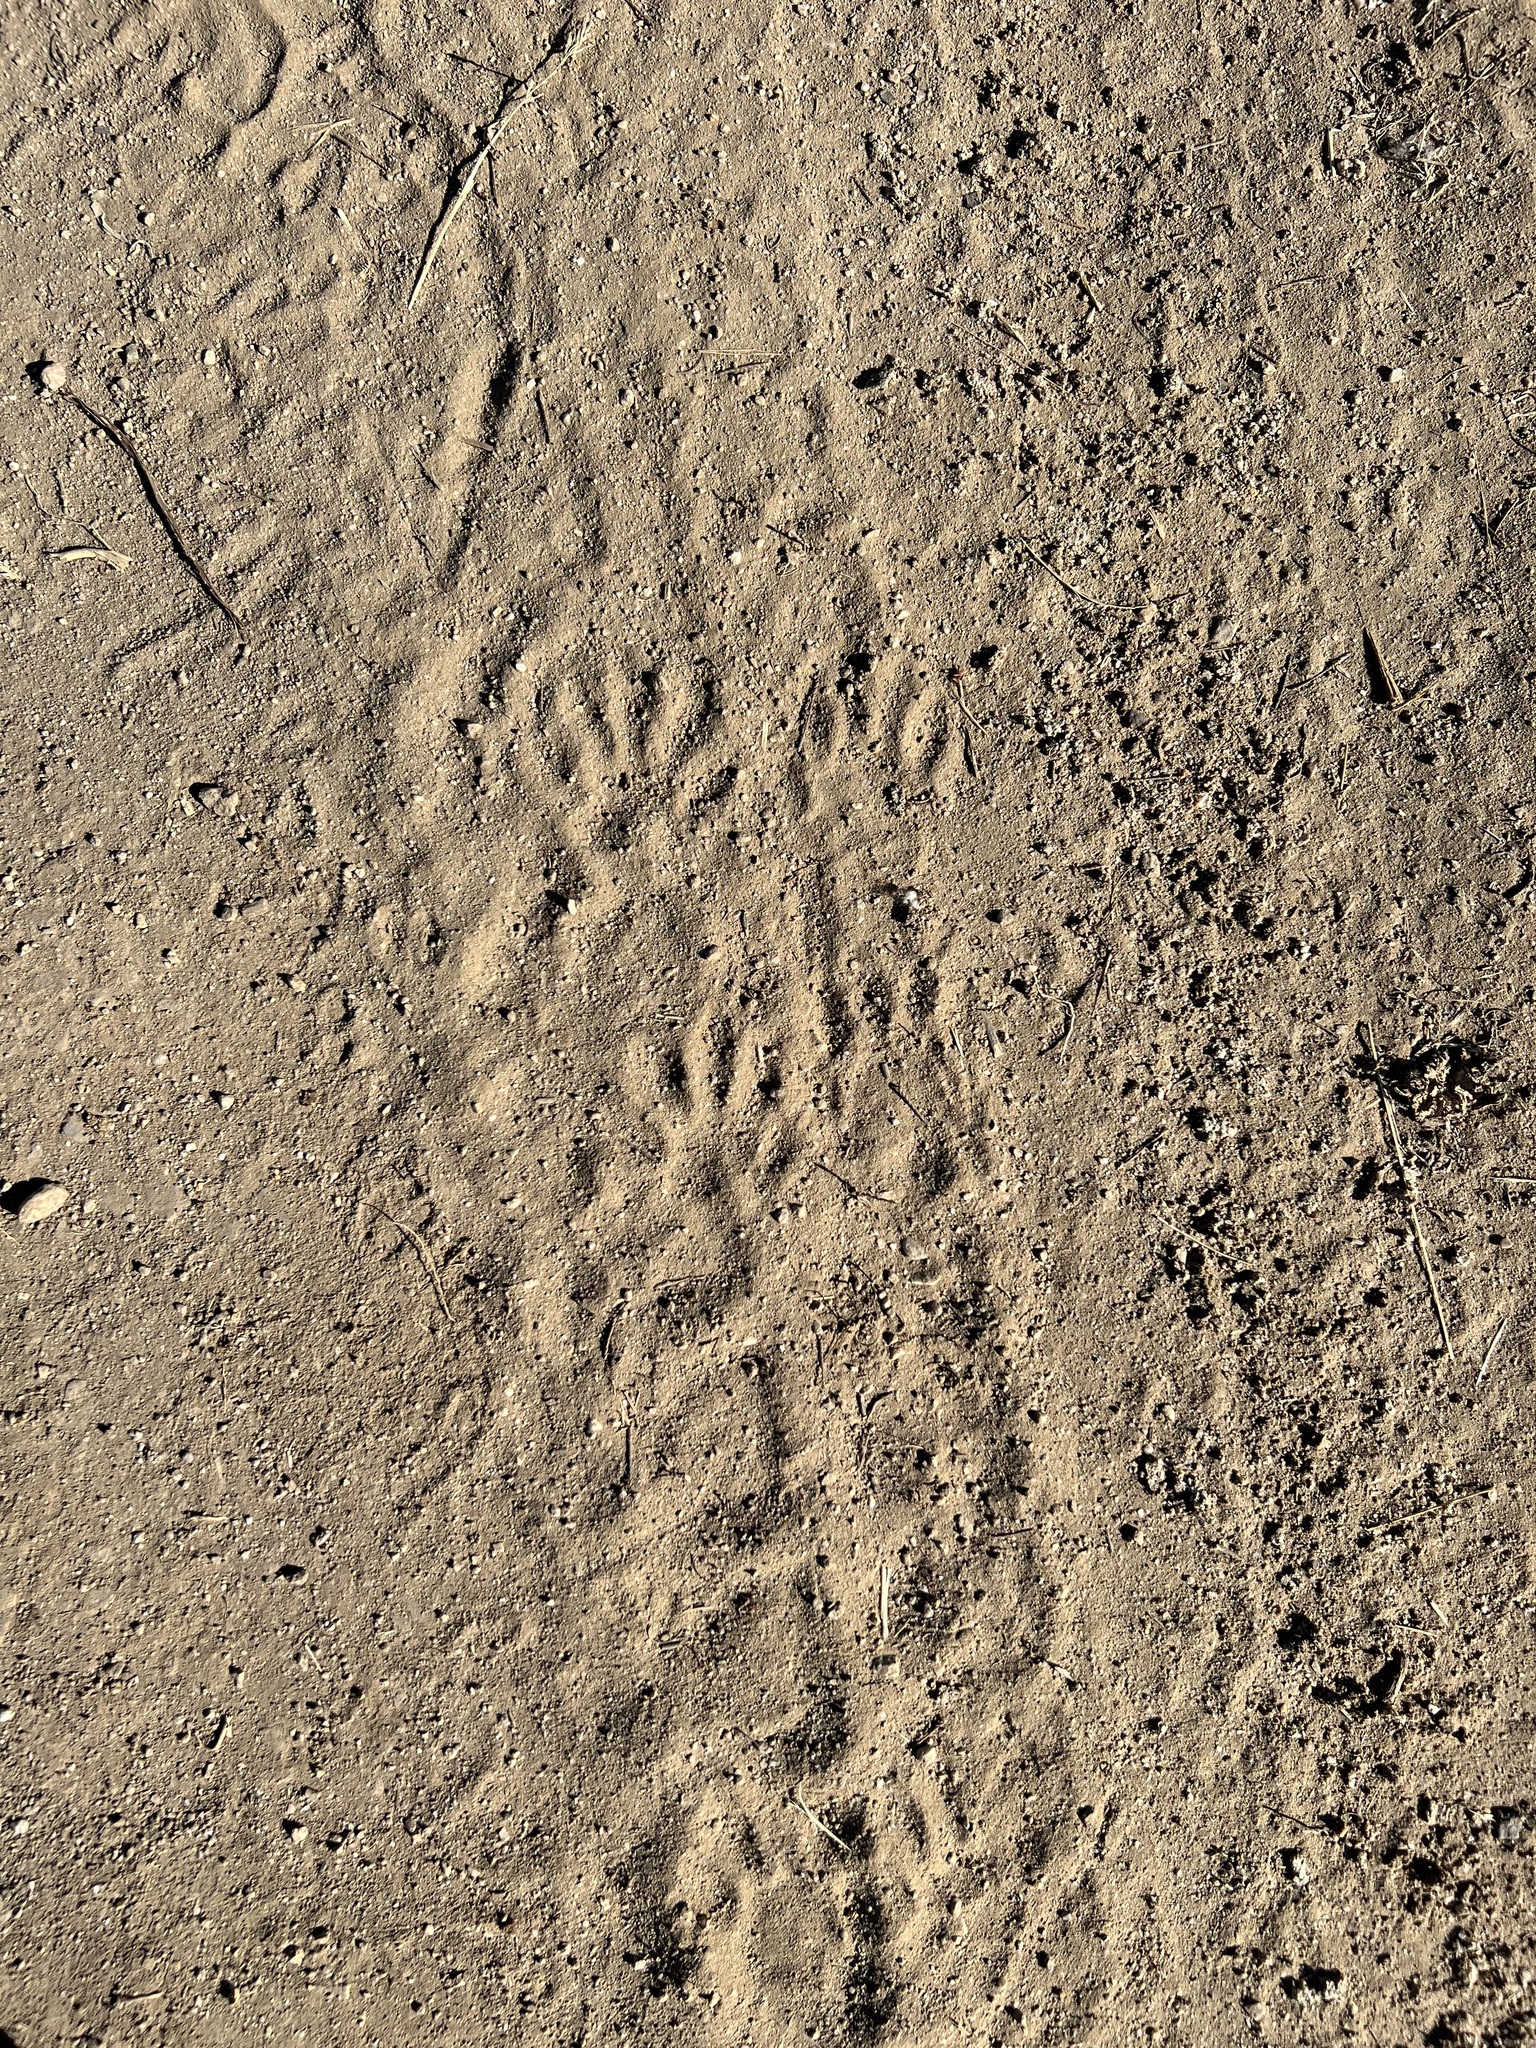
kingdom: Animalia
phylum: Chordata
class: Mammalia
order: Carnivora
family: Procyonidae
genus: Procyon
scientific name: Procyon lotor
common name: Raccoon
